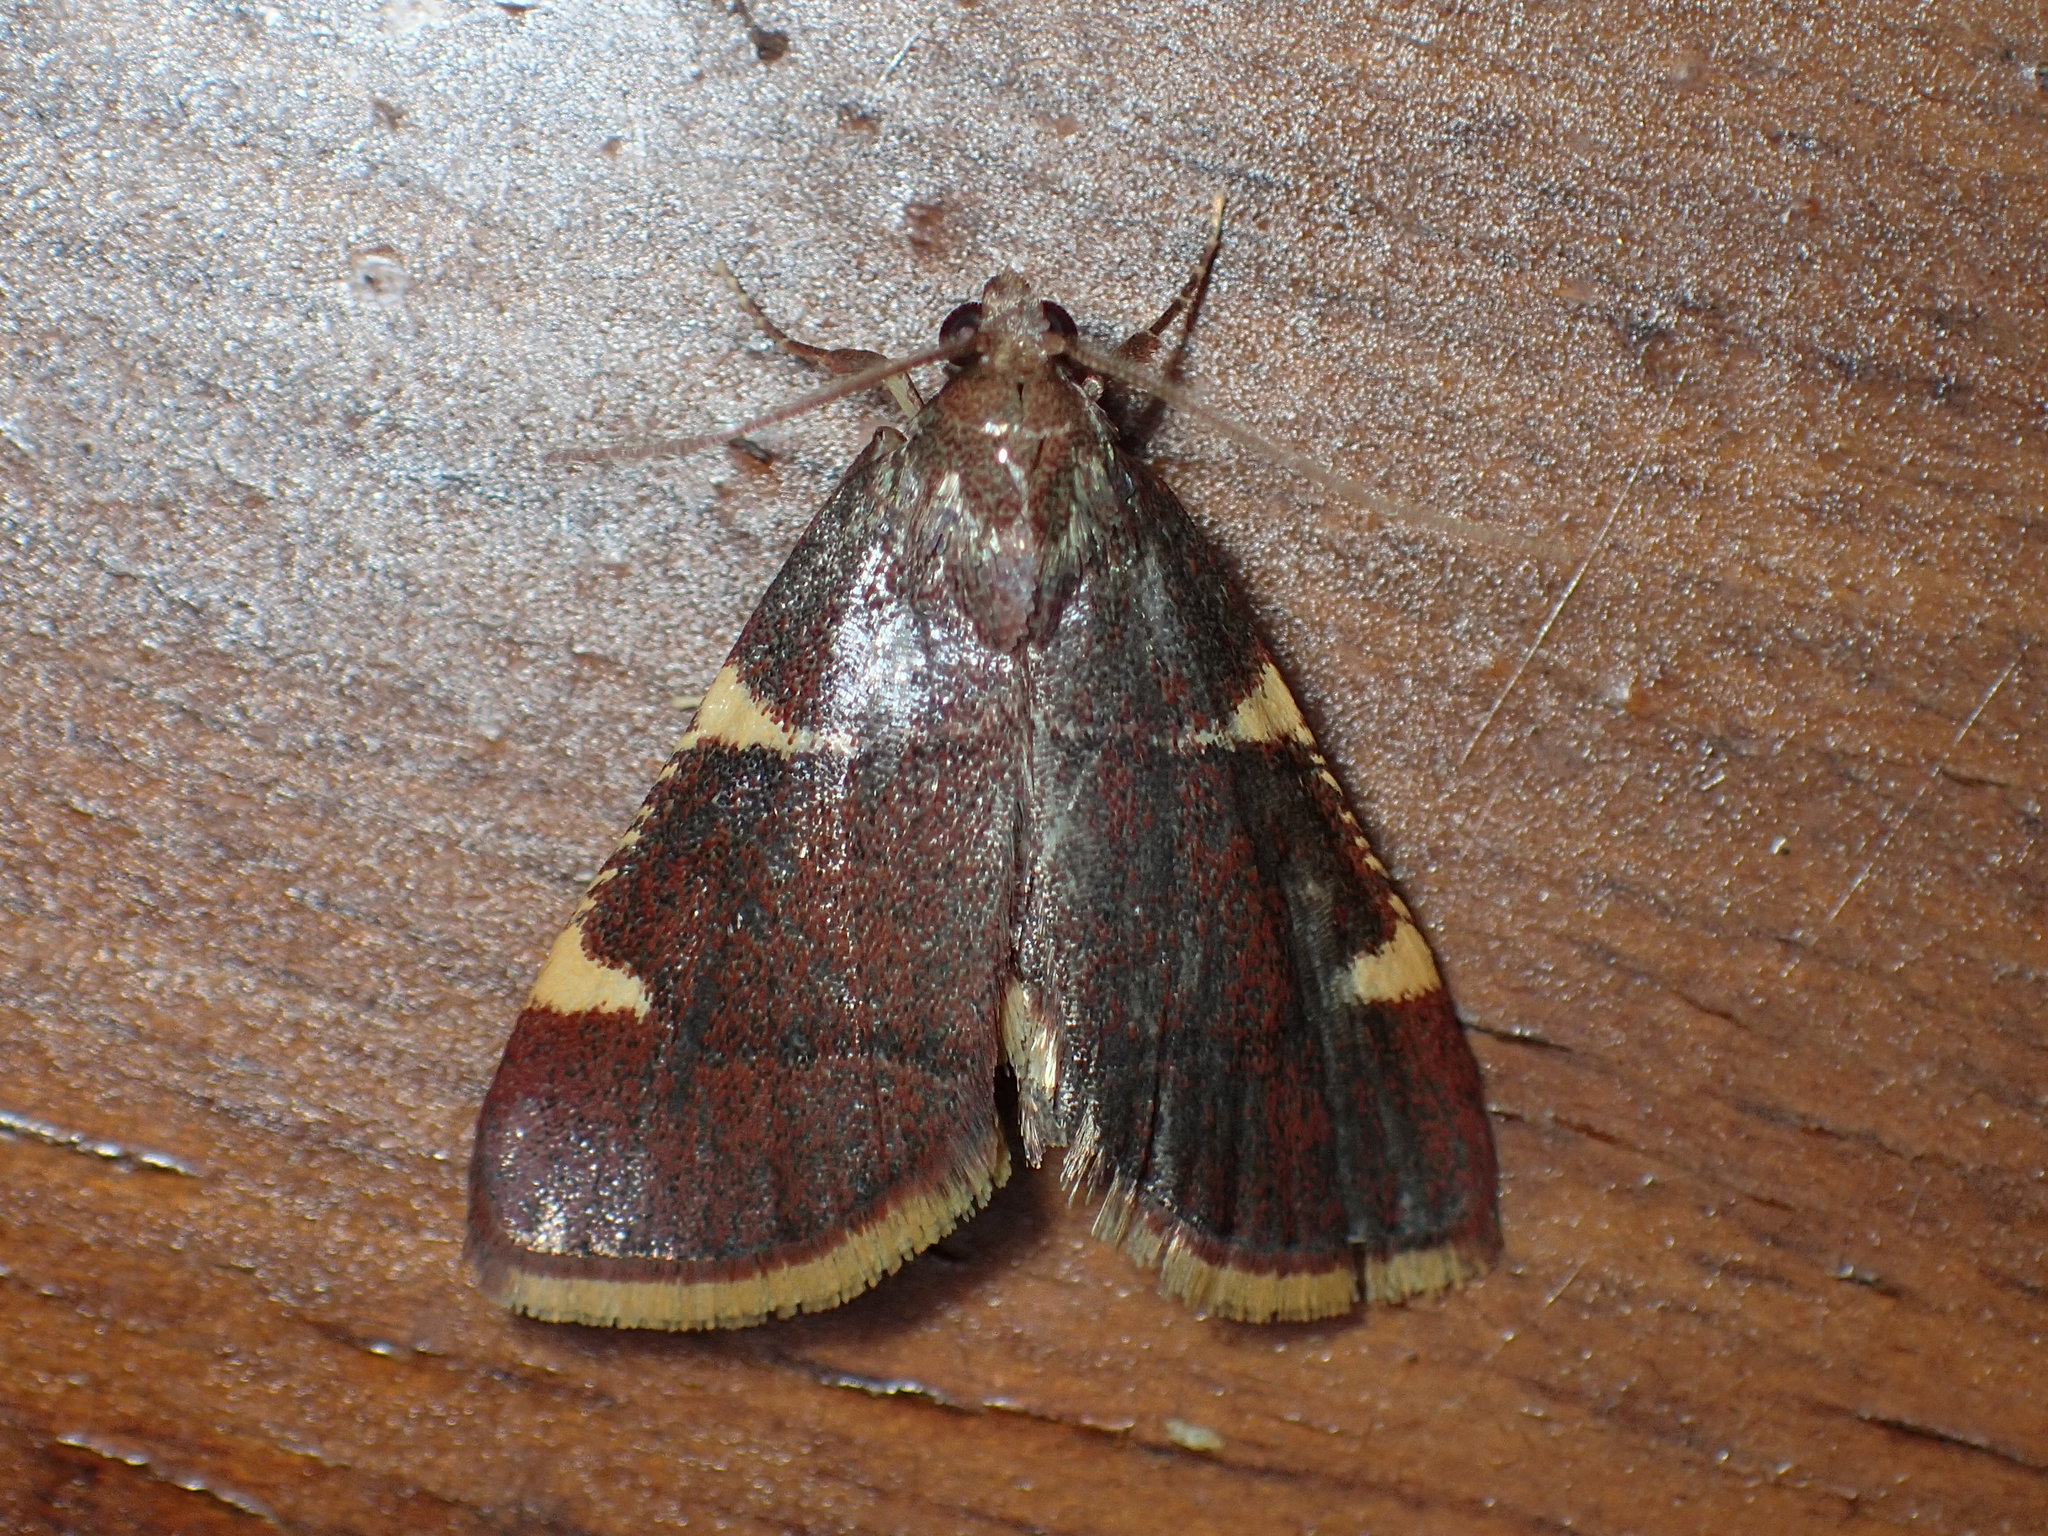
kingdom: Animalia
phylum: Arthropoda
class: Insecta
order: Lepidoptera
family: Pyralidae
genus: Hypsopygia
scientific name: Hypsopygia olinalis
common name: Yellow-fringed dolichomia moth
